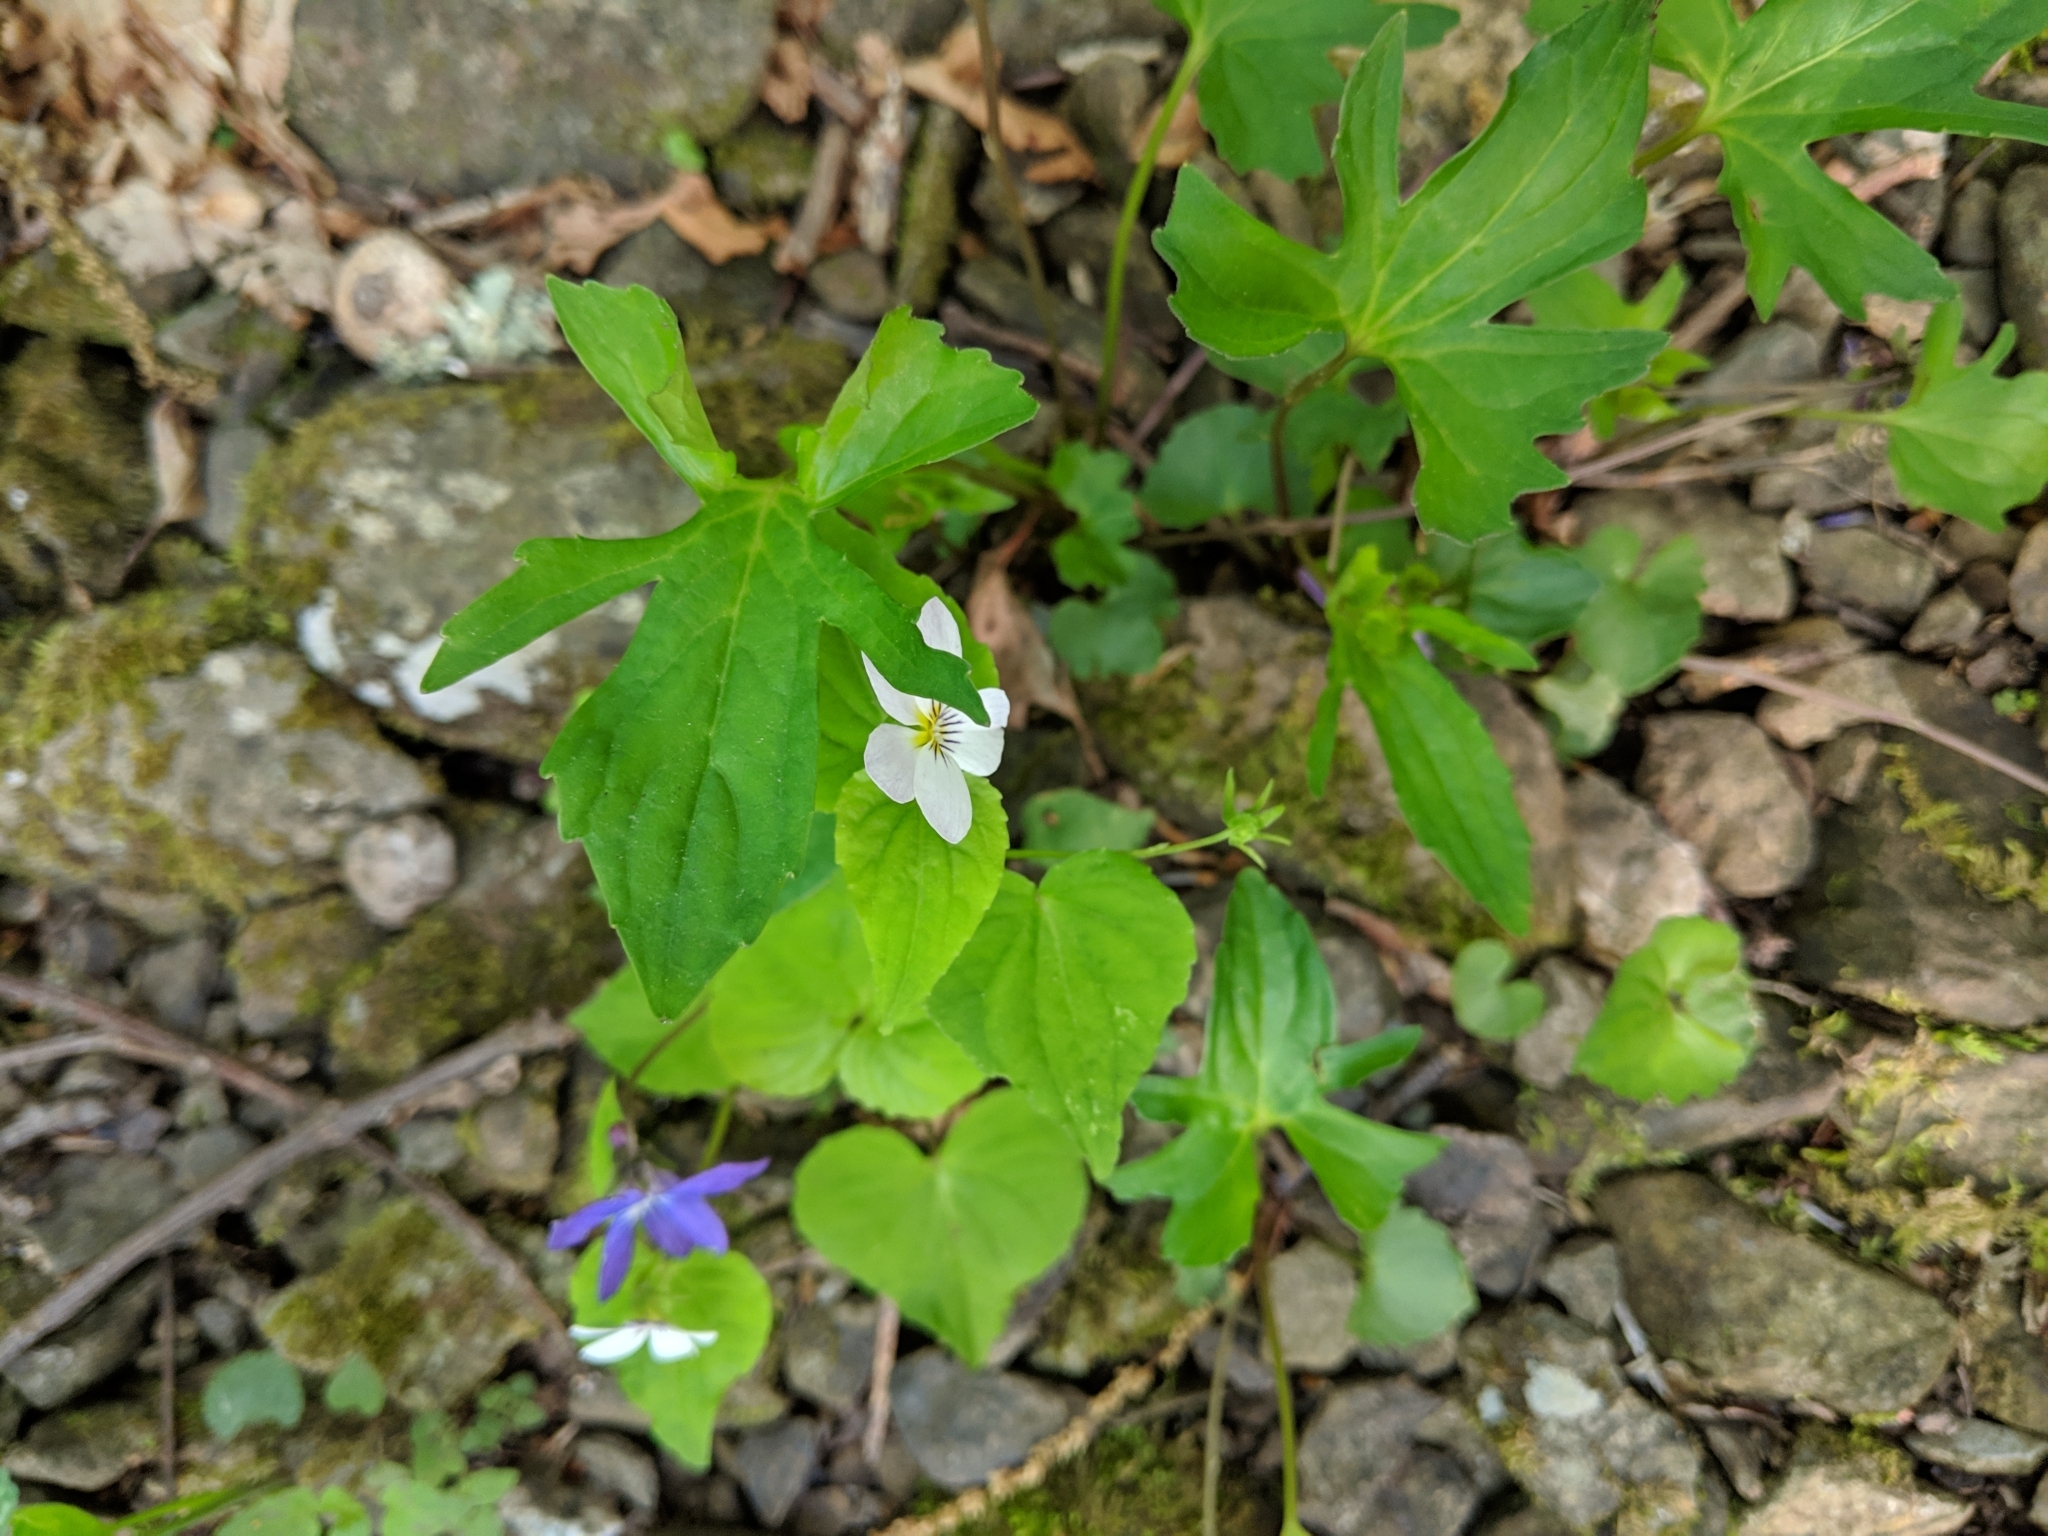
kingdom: Plantae
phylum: Tracheophyta
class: Magnoliopsida
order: Malpighiales
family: Violaceae
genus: Viola
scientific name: Viola canadensis
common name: Canada violet
